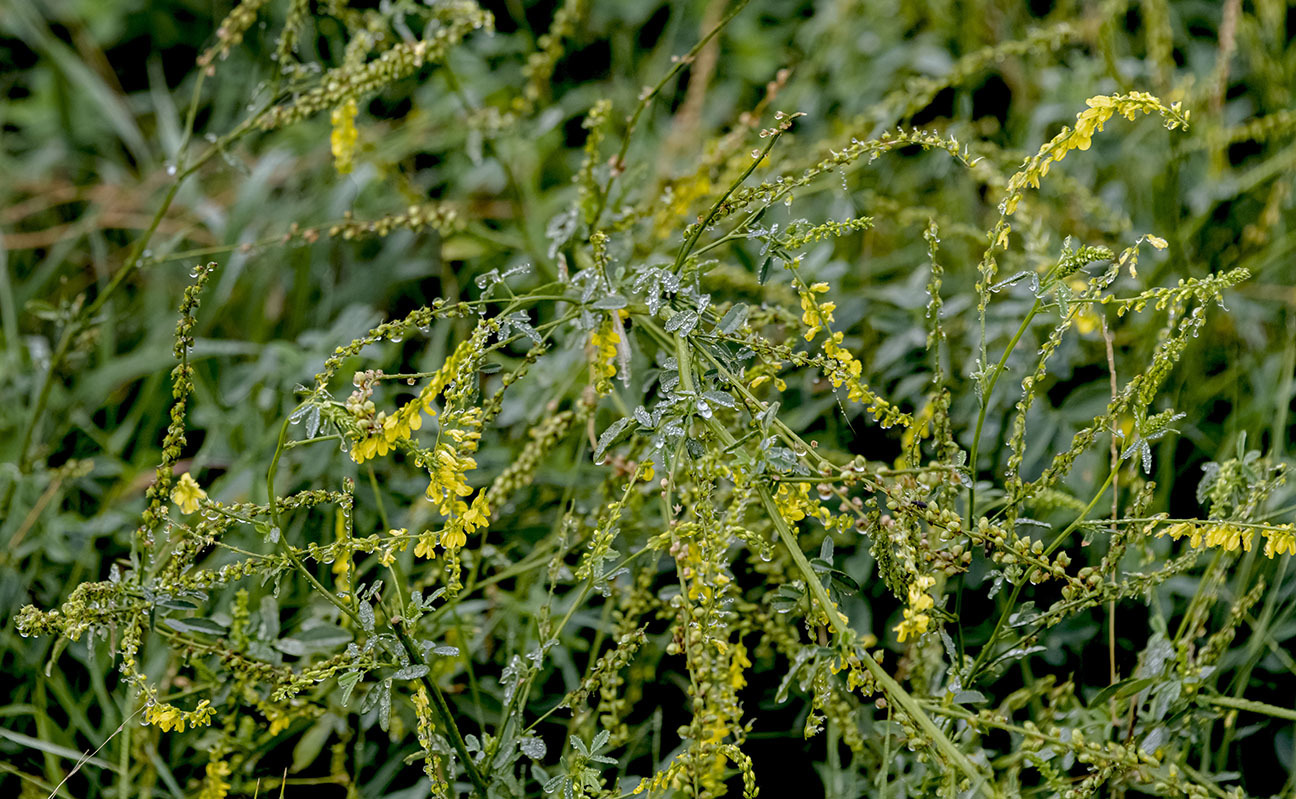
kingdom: Plantae
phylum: Tracheophyta
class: Magnoliopsida
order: Fabales
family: Fabaceae
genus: Melilotus
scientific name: Melilotus officinalis
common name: Sweetclover
